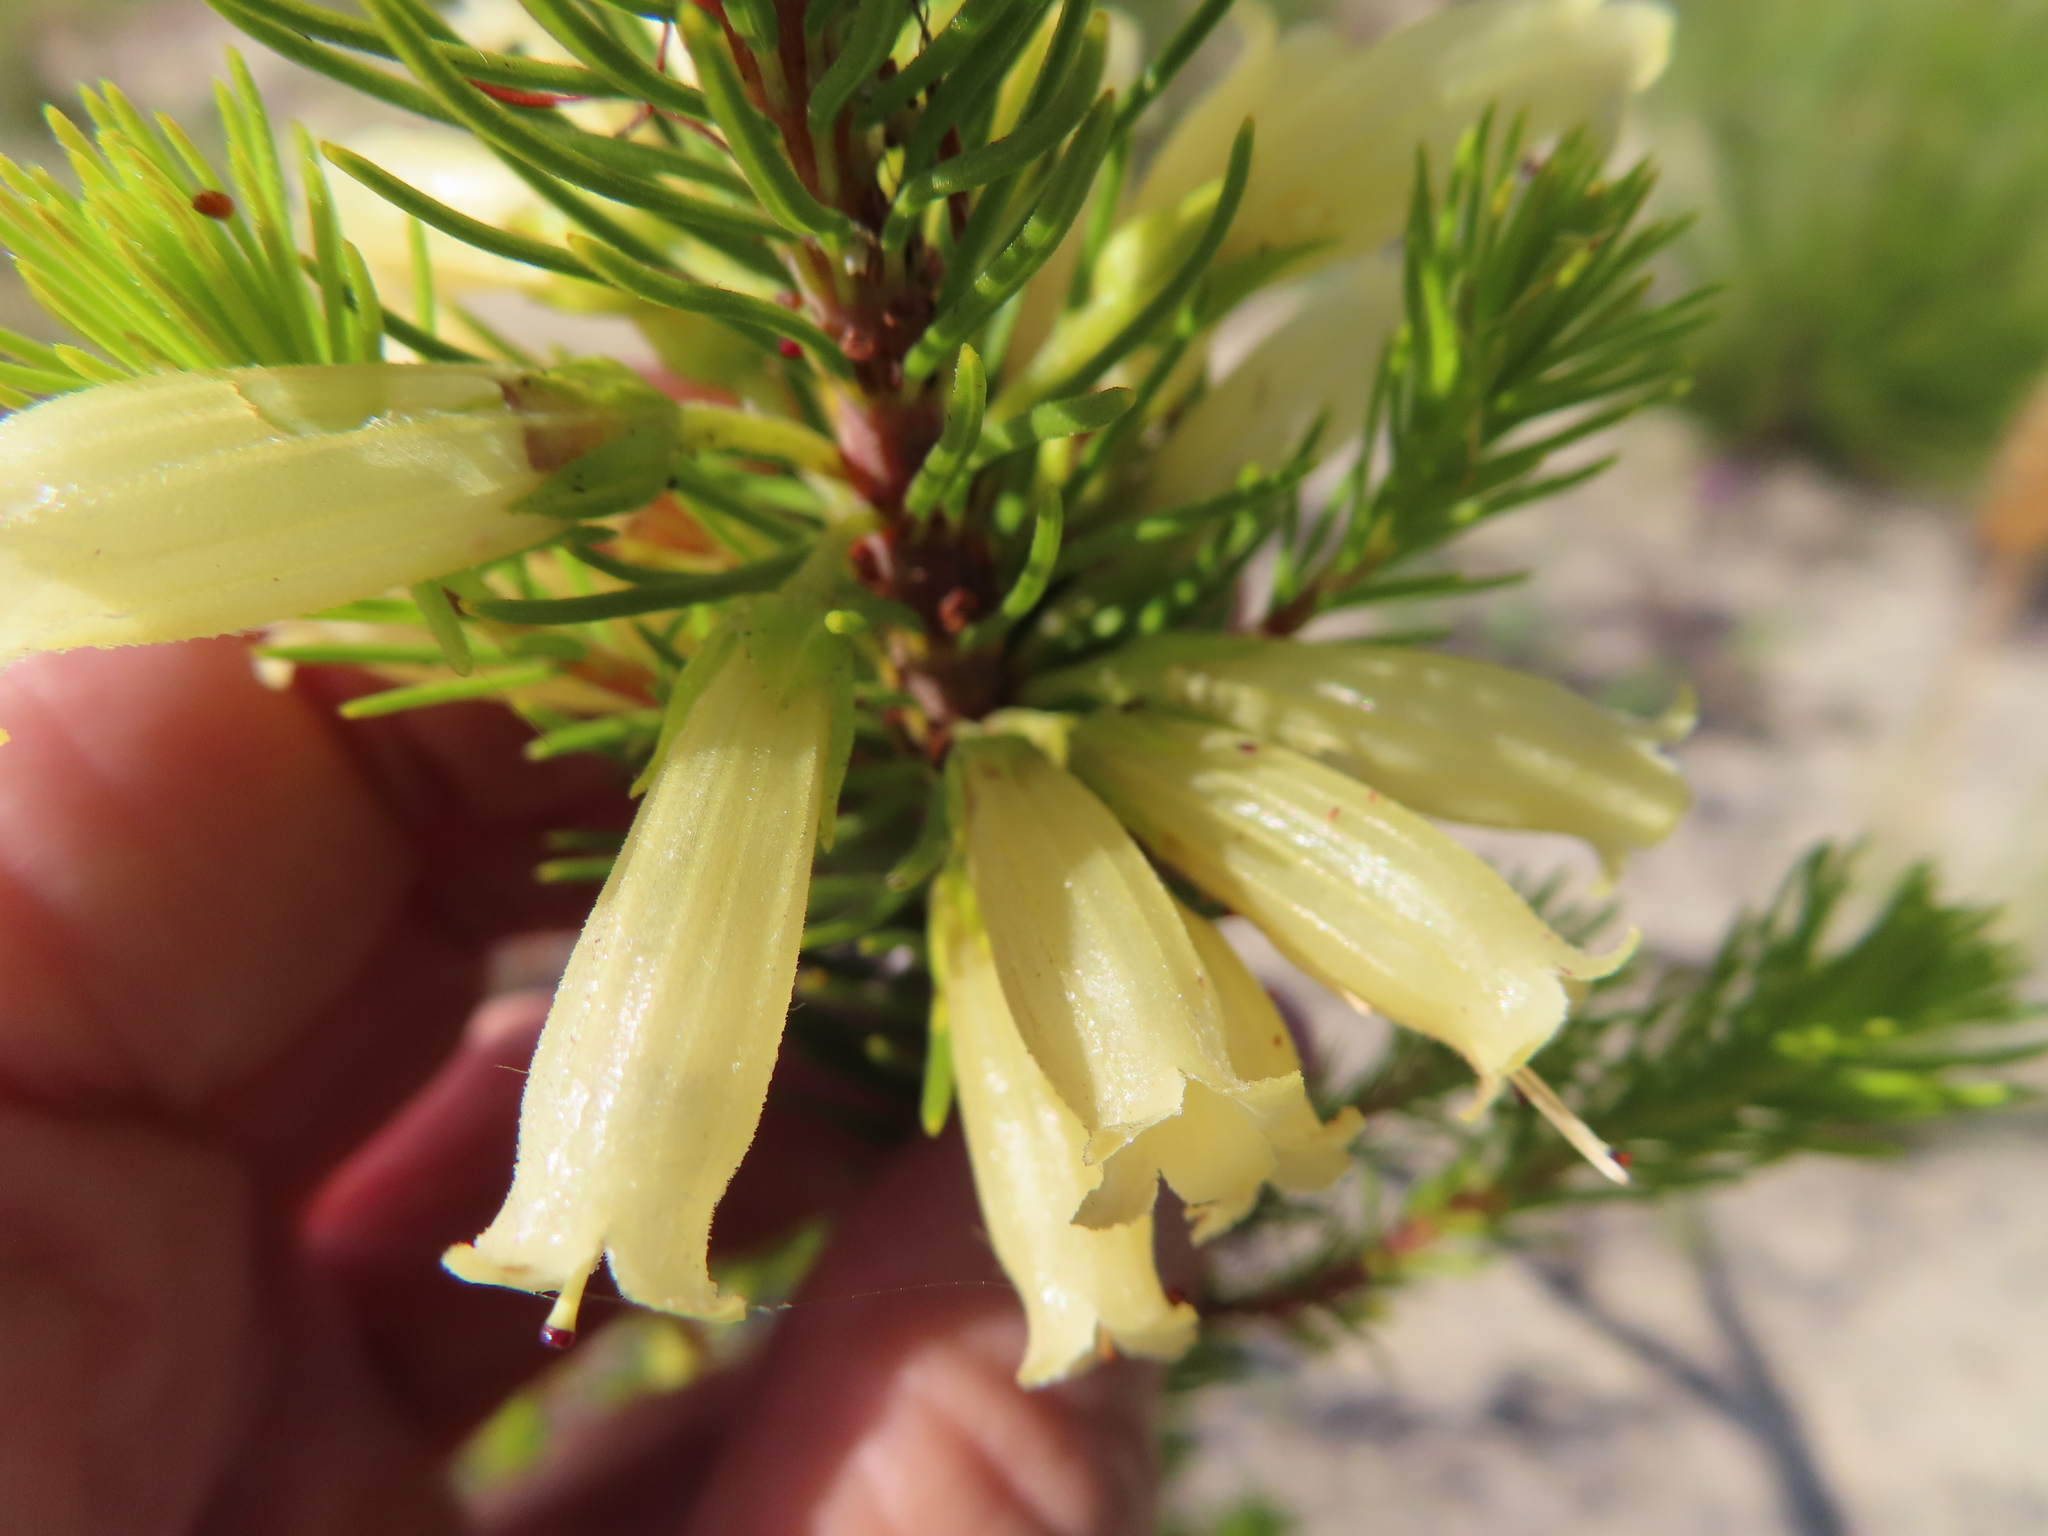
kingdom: Plantae
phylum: Tracheophyta
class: Magnoliopsida
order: Ericales
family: Ericaceae
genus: Erica
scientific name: Erica viscaria
